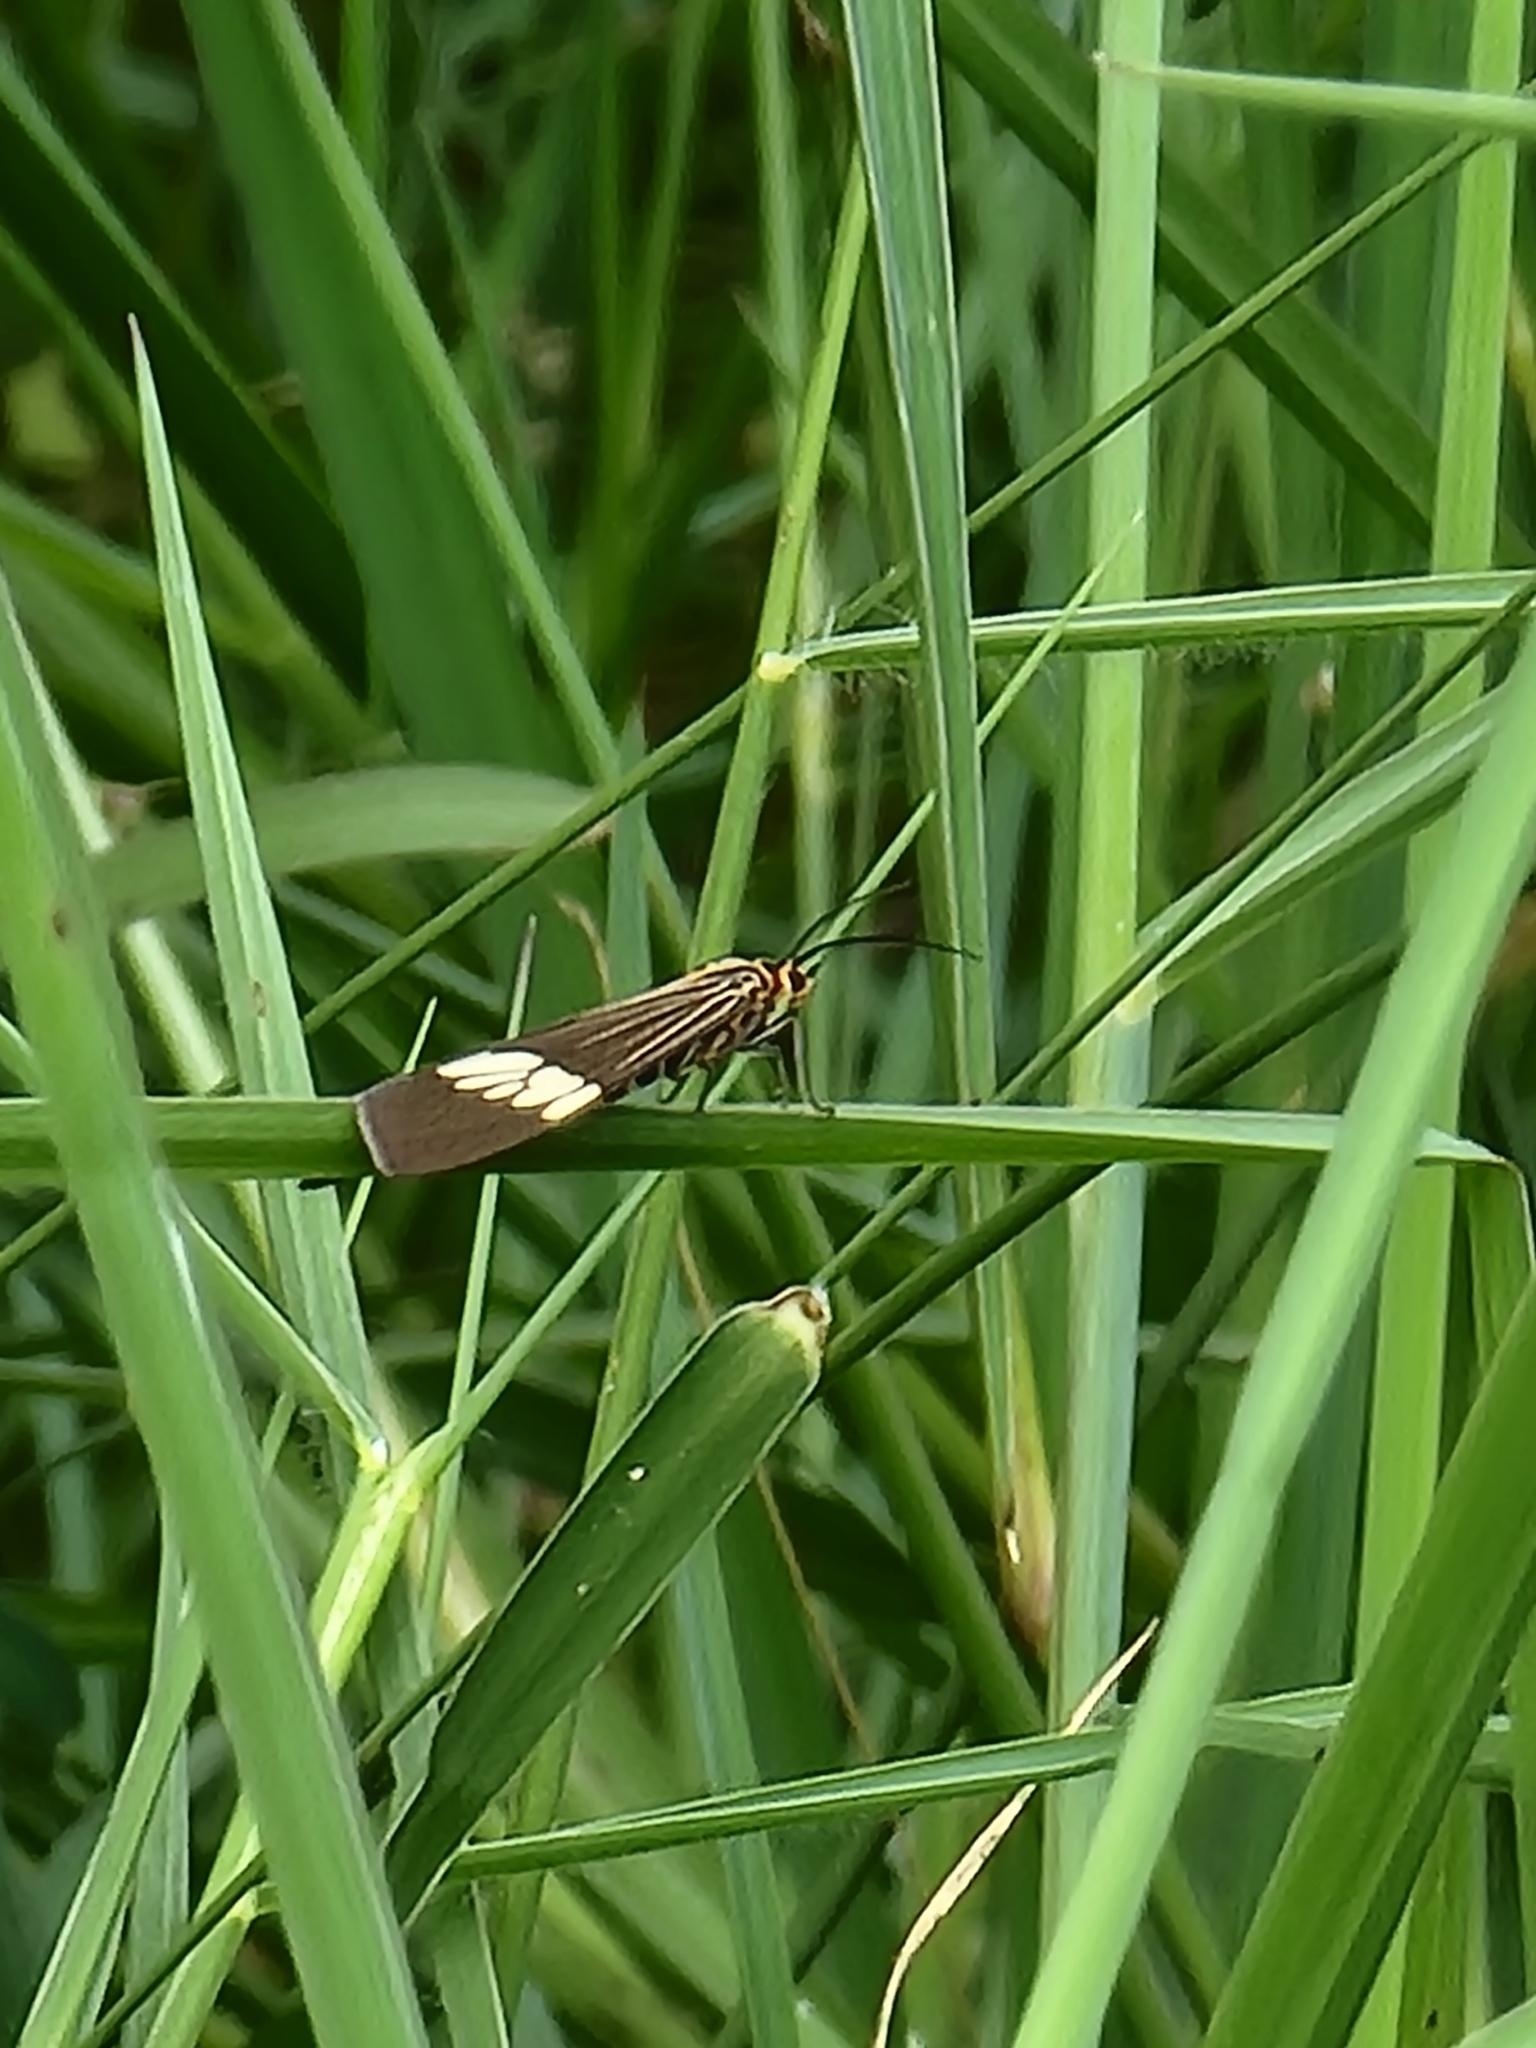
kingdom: Animalia
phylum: Arthropoda
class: Insecta
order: Lepidoptera
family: Erebidae
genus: Nyctemera
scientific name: Nyctemera baulus
